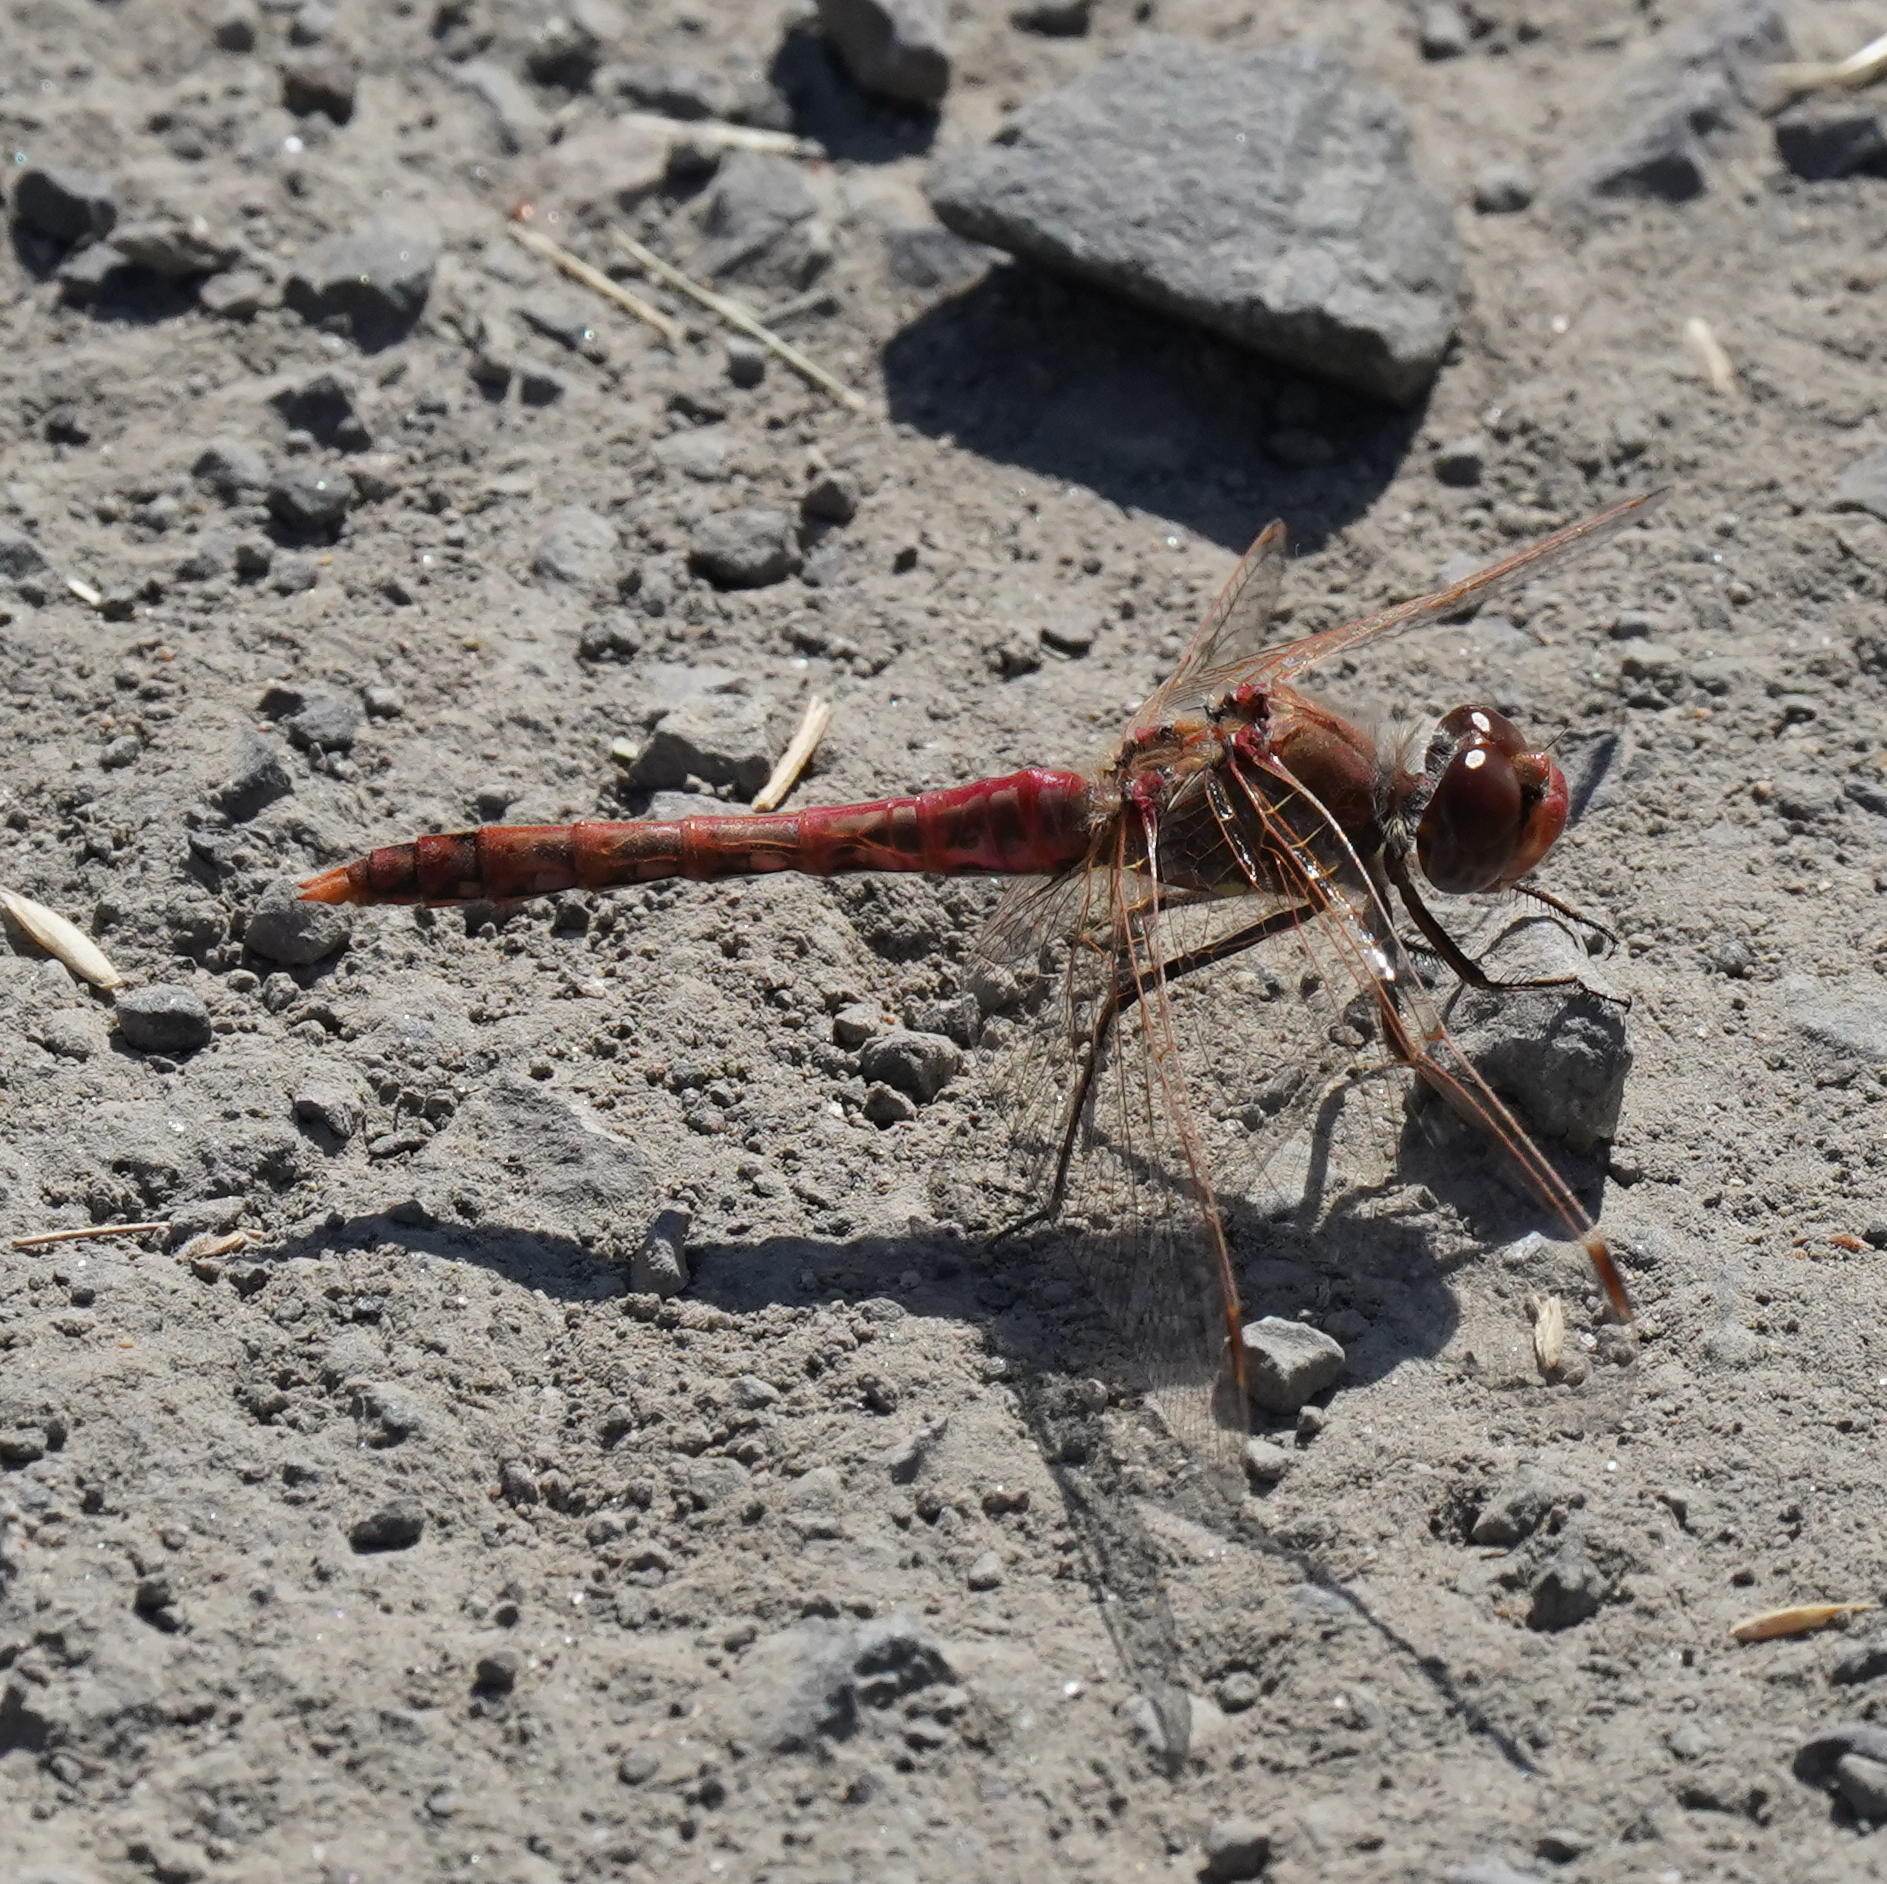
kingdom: Animalia
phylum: Arthropoda
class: Insecta
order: Odonata
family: Libellulidae
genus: Sympetrum
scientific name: Sympetrum corruptum
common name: Variegated meadowhawk
